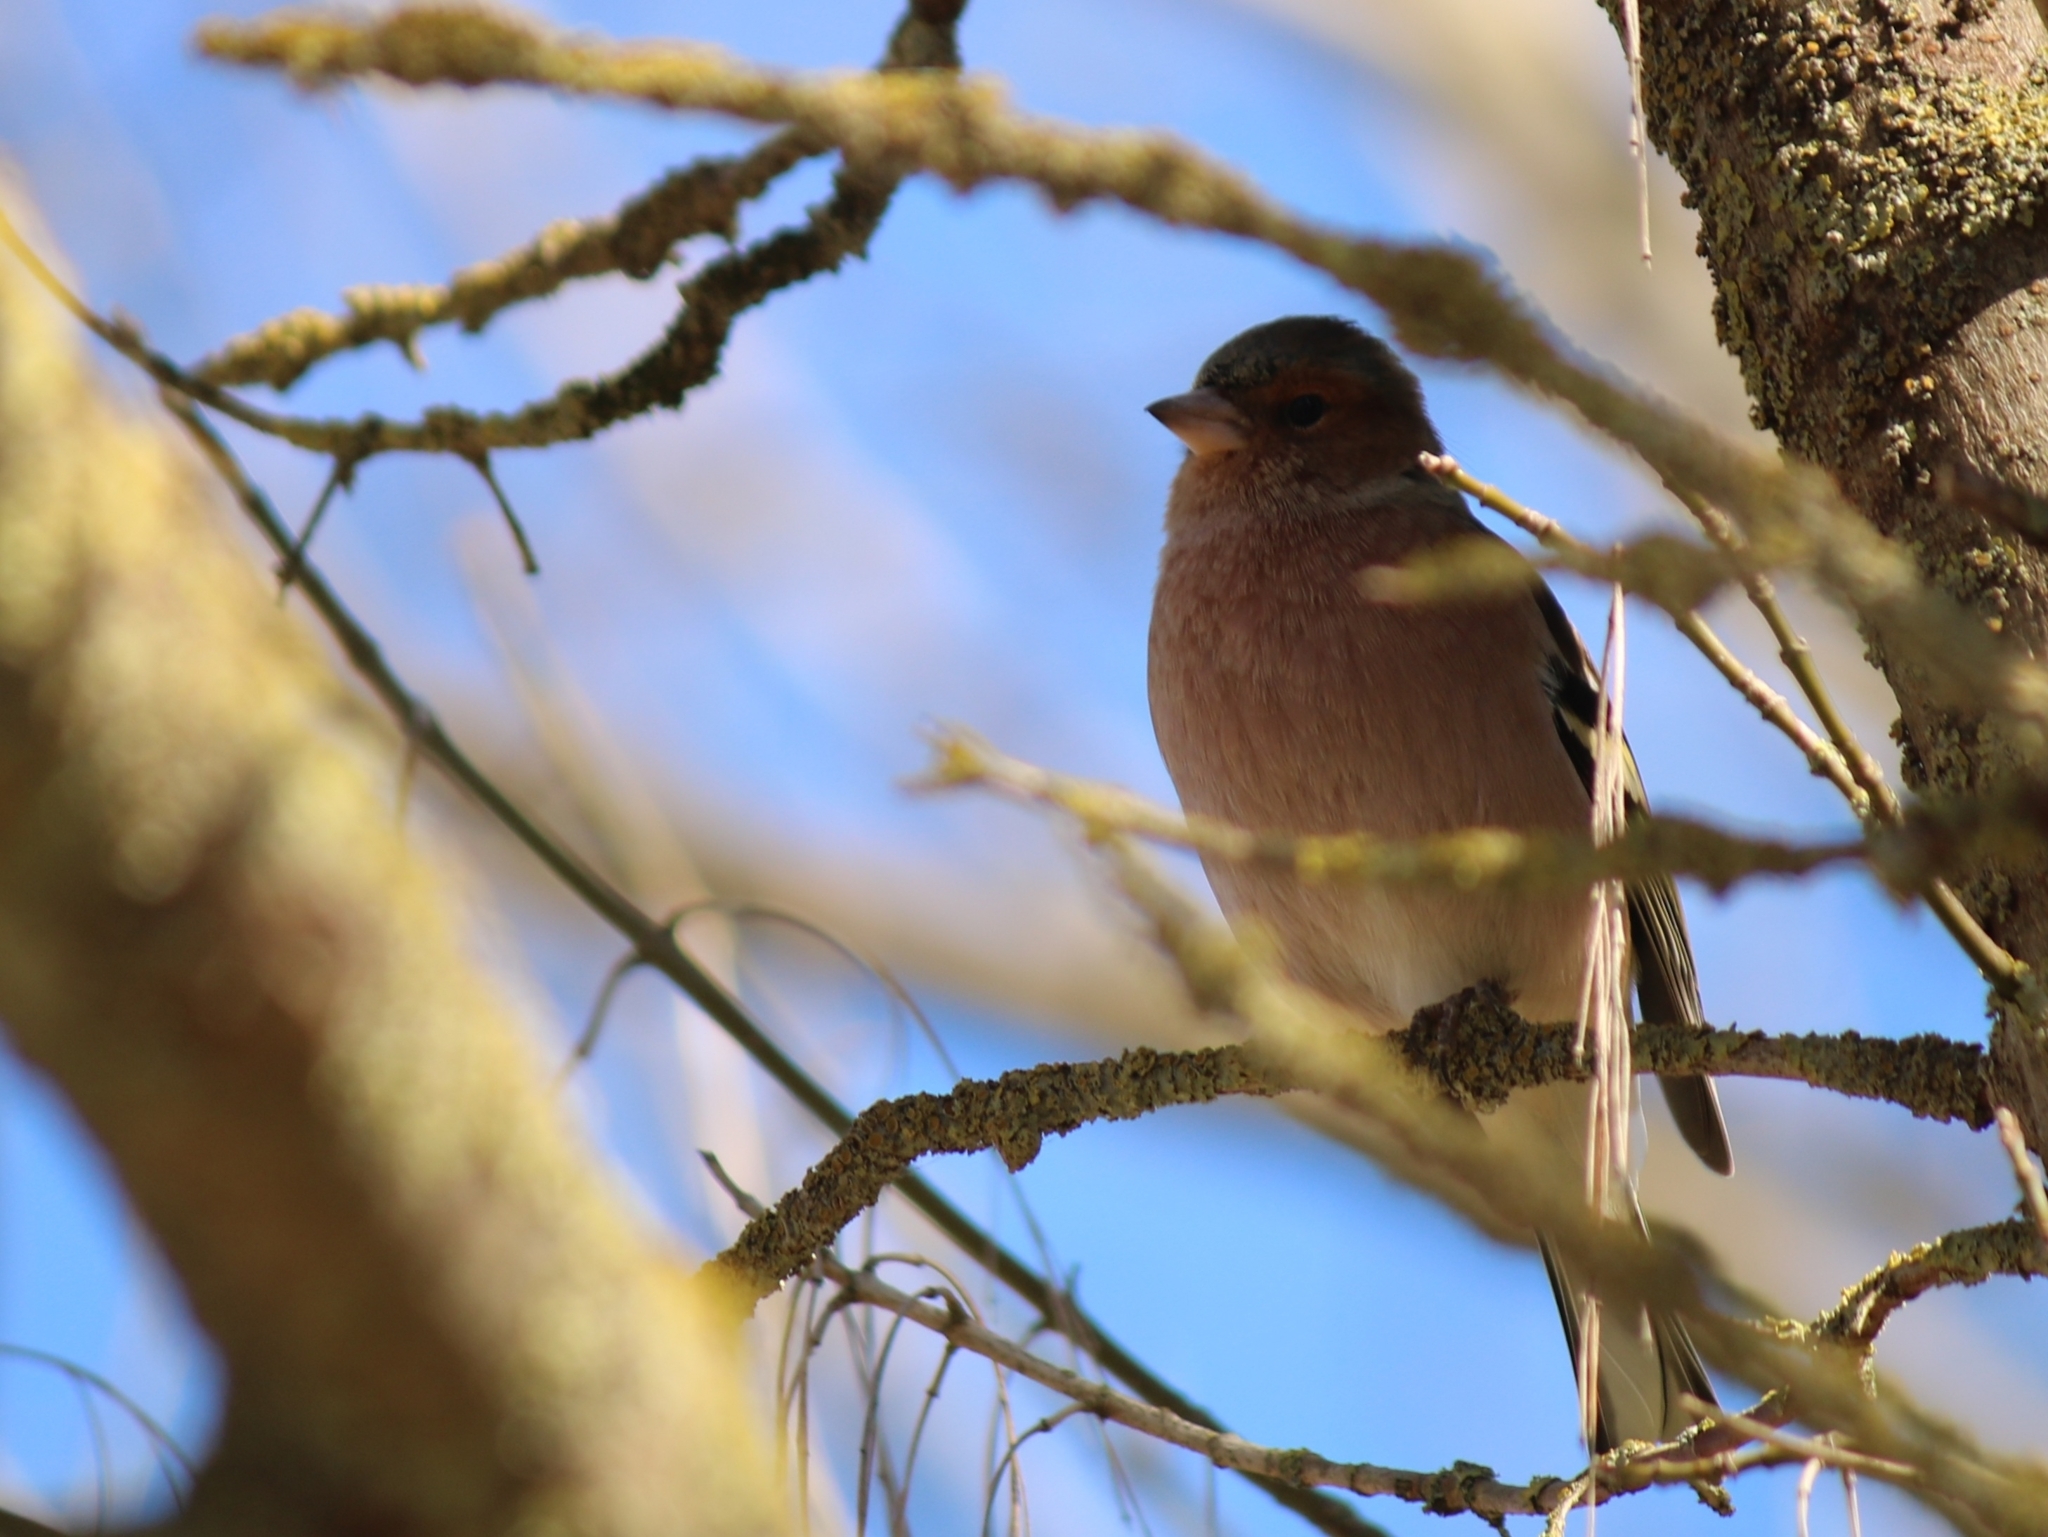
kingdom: Animalia
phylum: Chordata
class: Aves
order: Passeriformes
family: Fringillidae
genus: Fringilla
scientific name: Fringilla coelebs
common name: Common chaffinch
